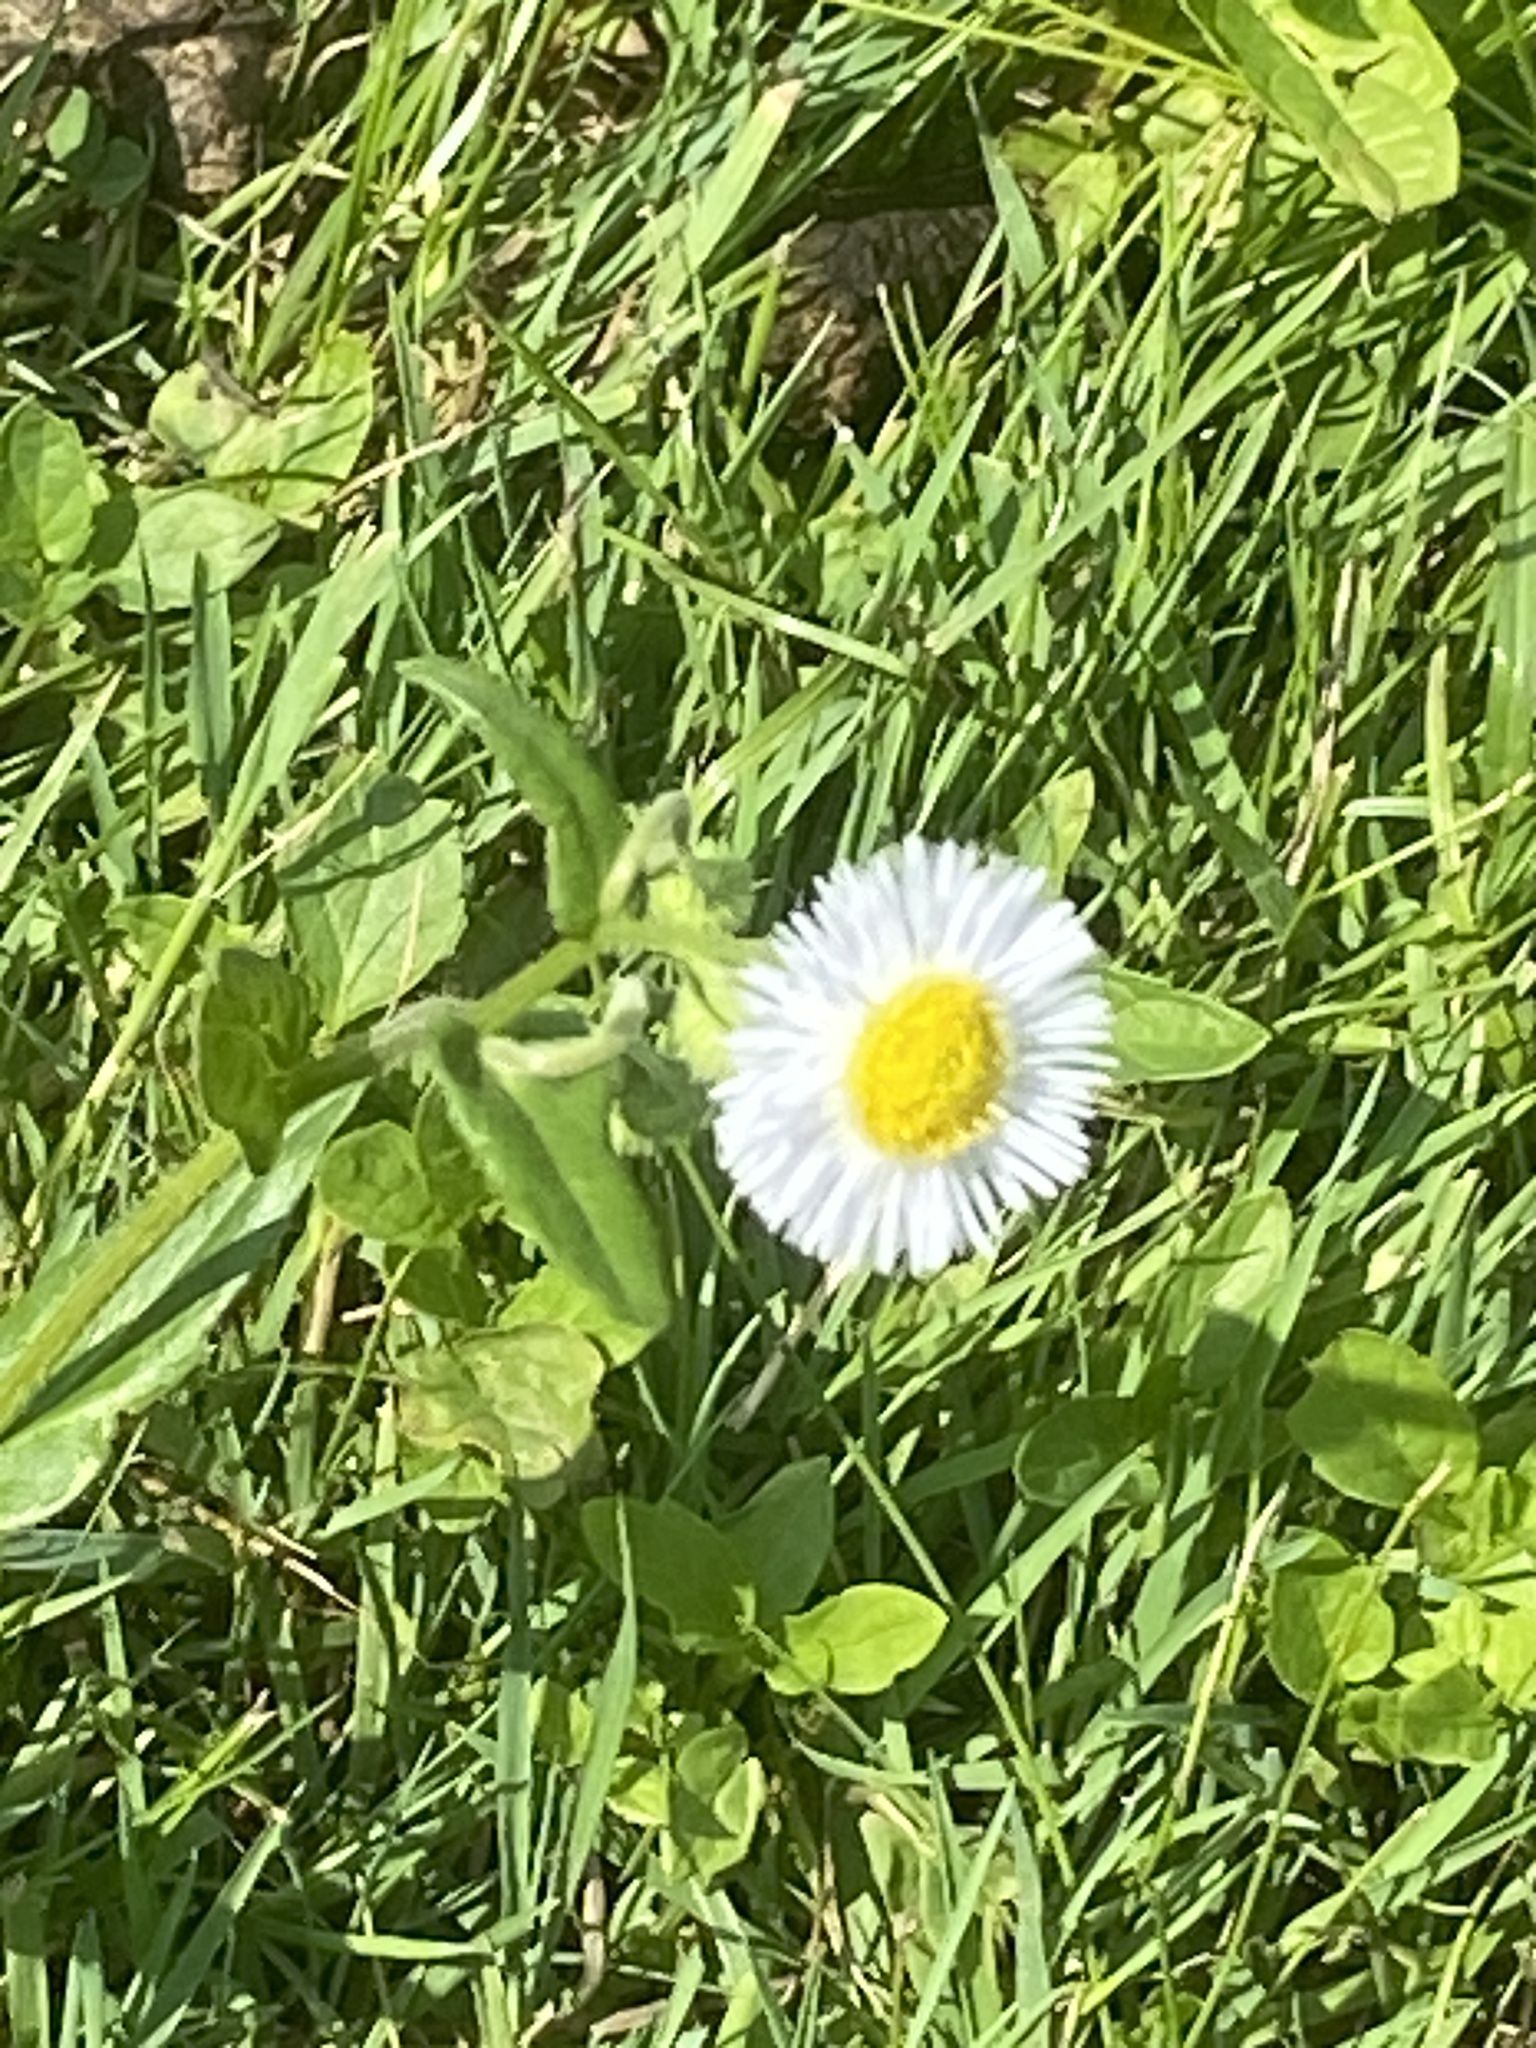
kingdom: Plantae
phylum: Tracheophyta
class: Magnoliopsida
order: Asterales
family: Asteraceae
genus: Erigeron
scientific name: Erigeron philadelphicus
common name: Robin's-plantain
